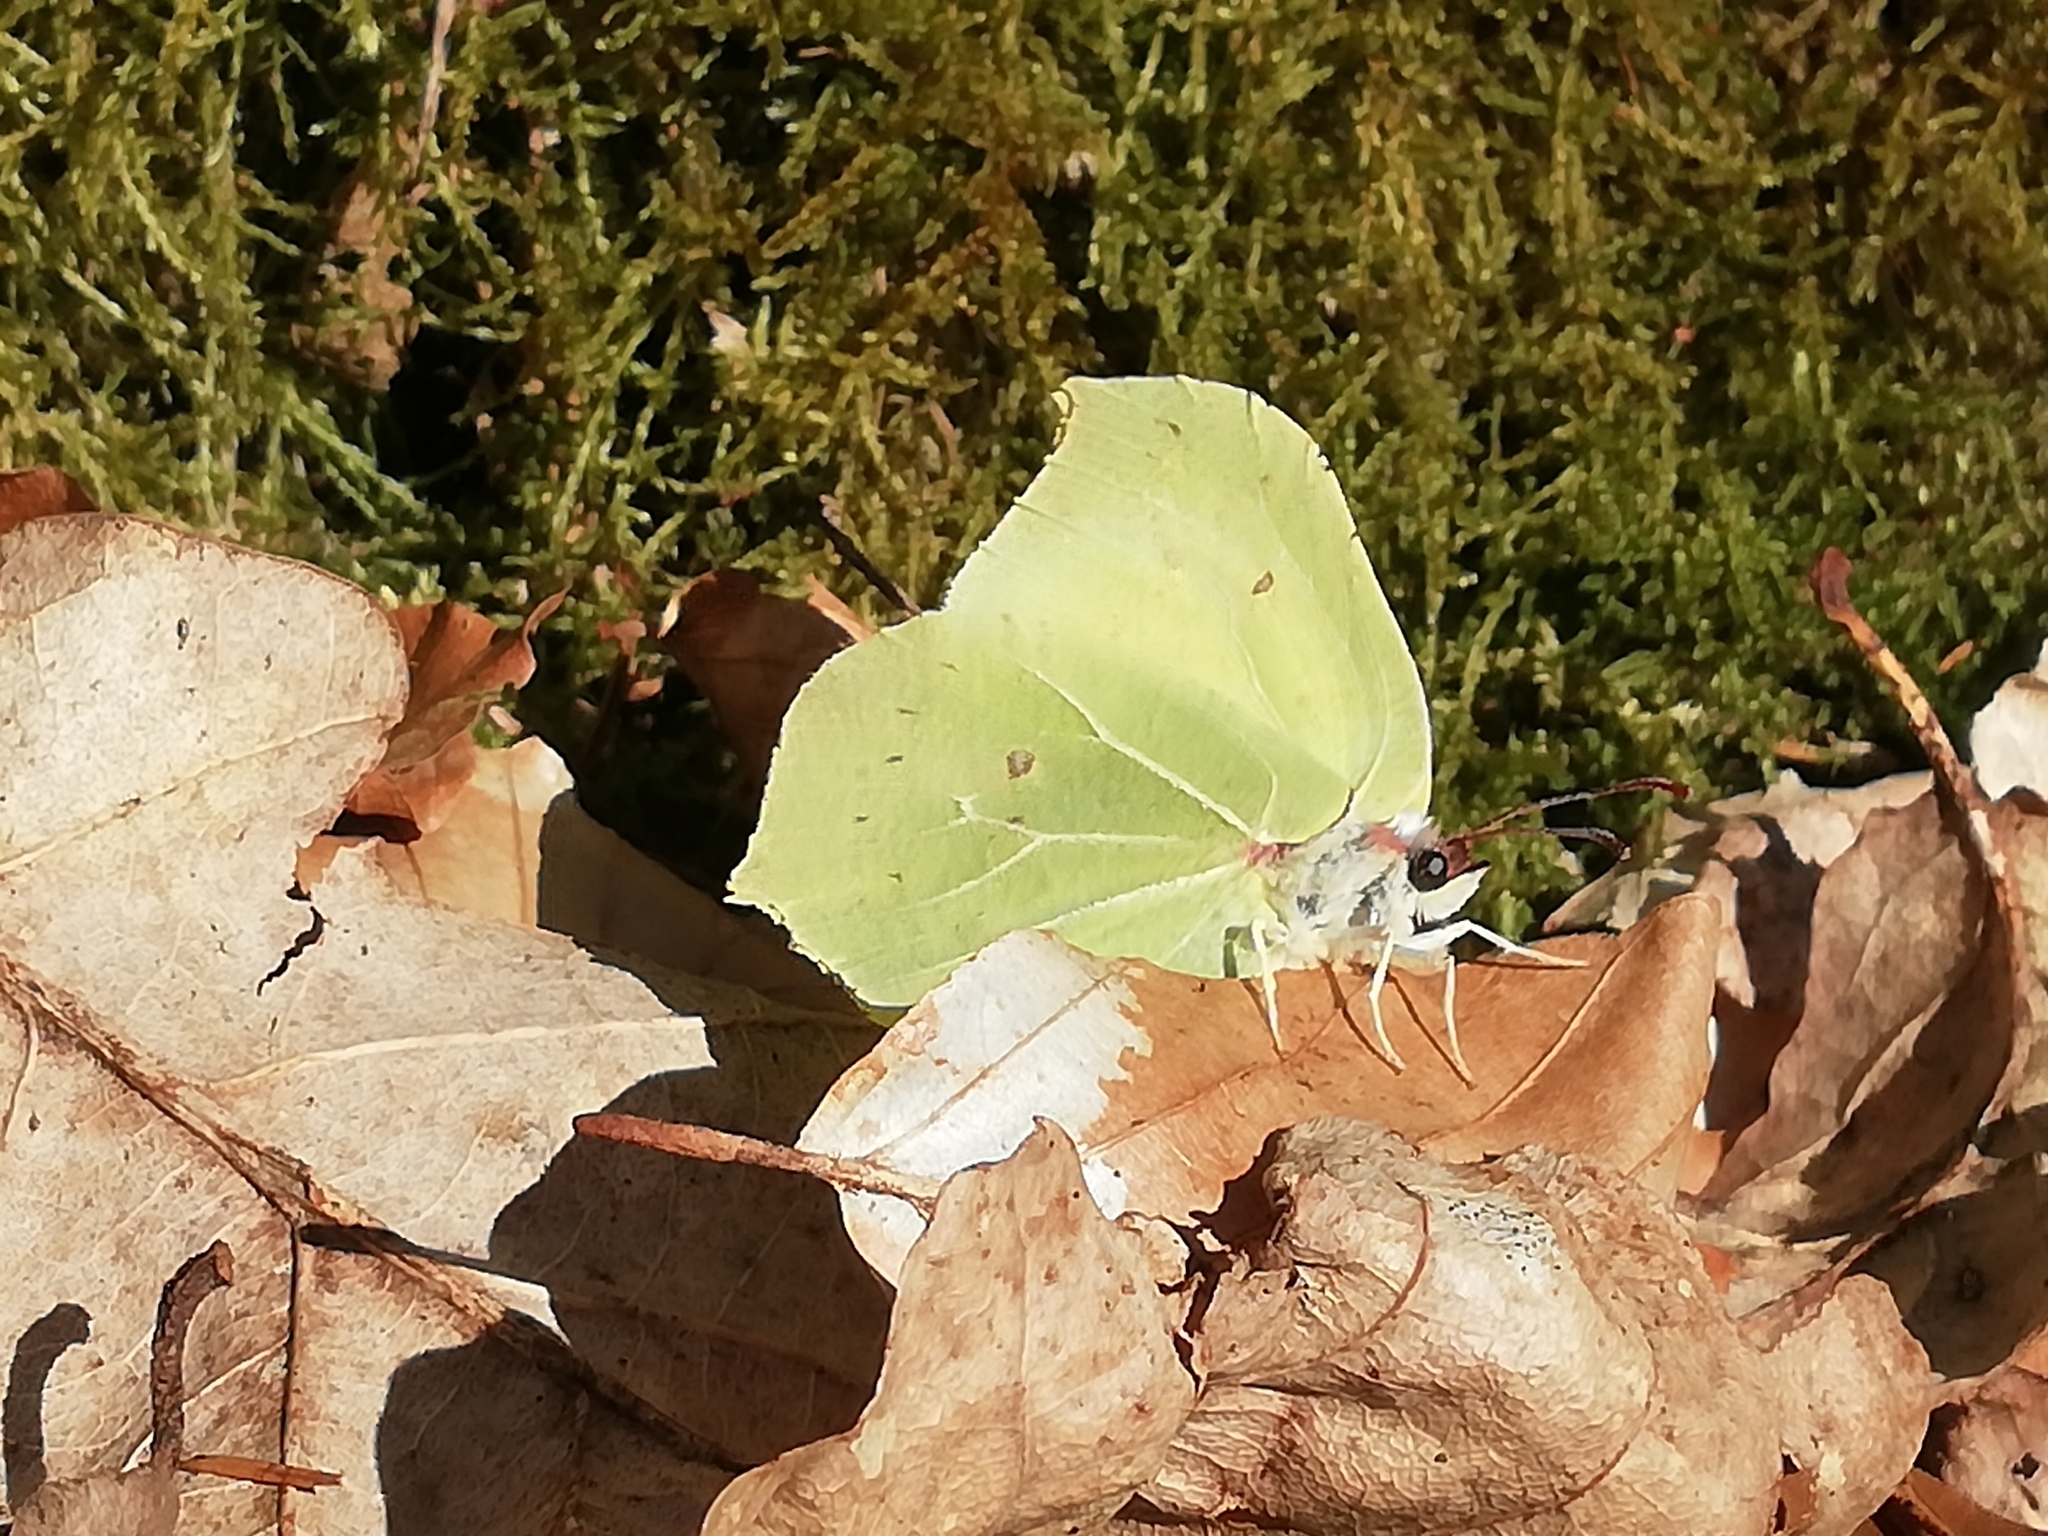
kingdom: Animalia
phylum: Arthropoda
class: Insecta
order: Lepidoptera
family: Pieridae
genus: Gonepteryx
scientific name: Gonepteryx rhamni
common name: Brimstone
